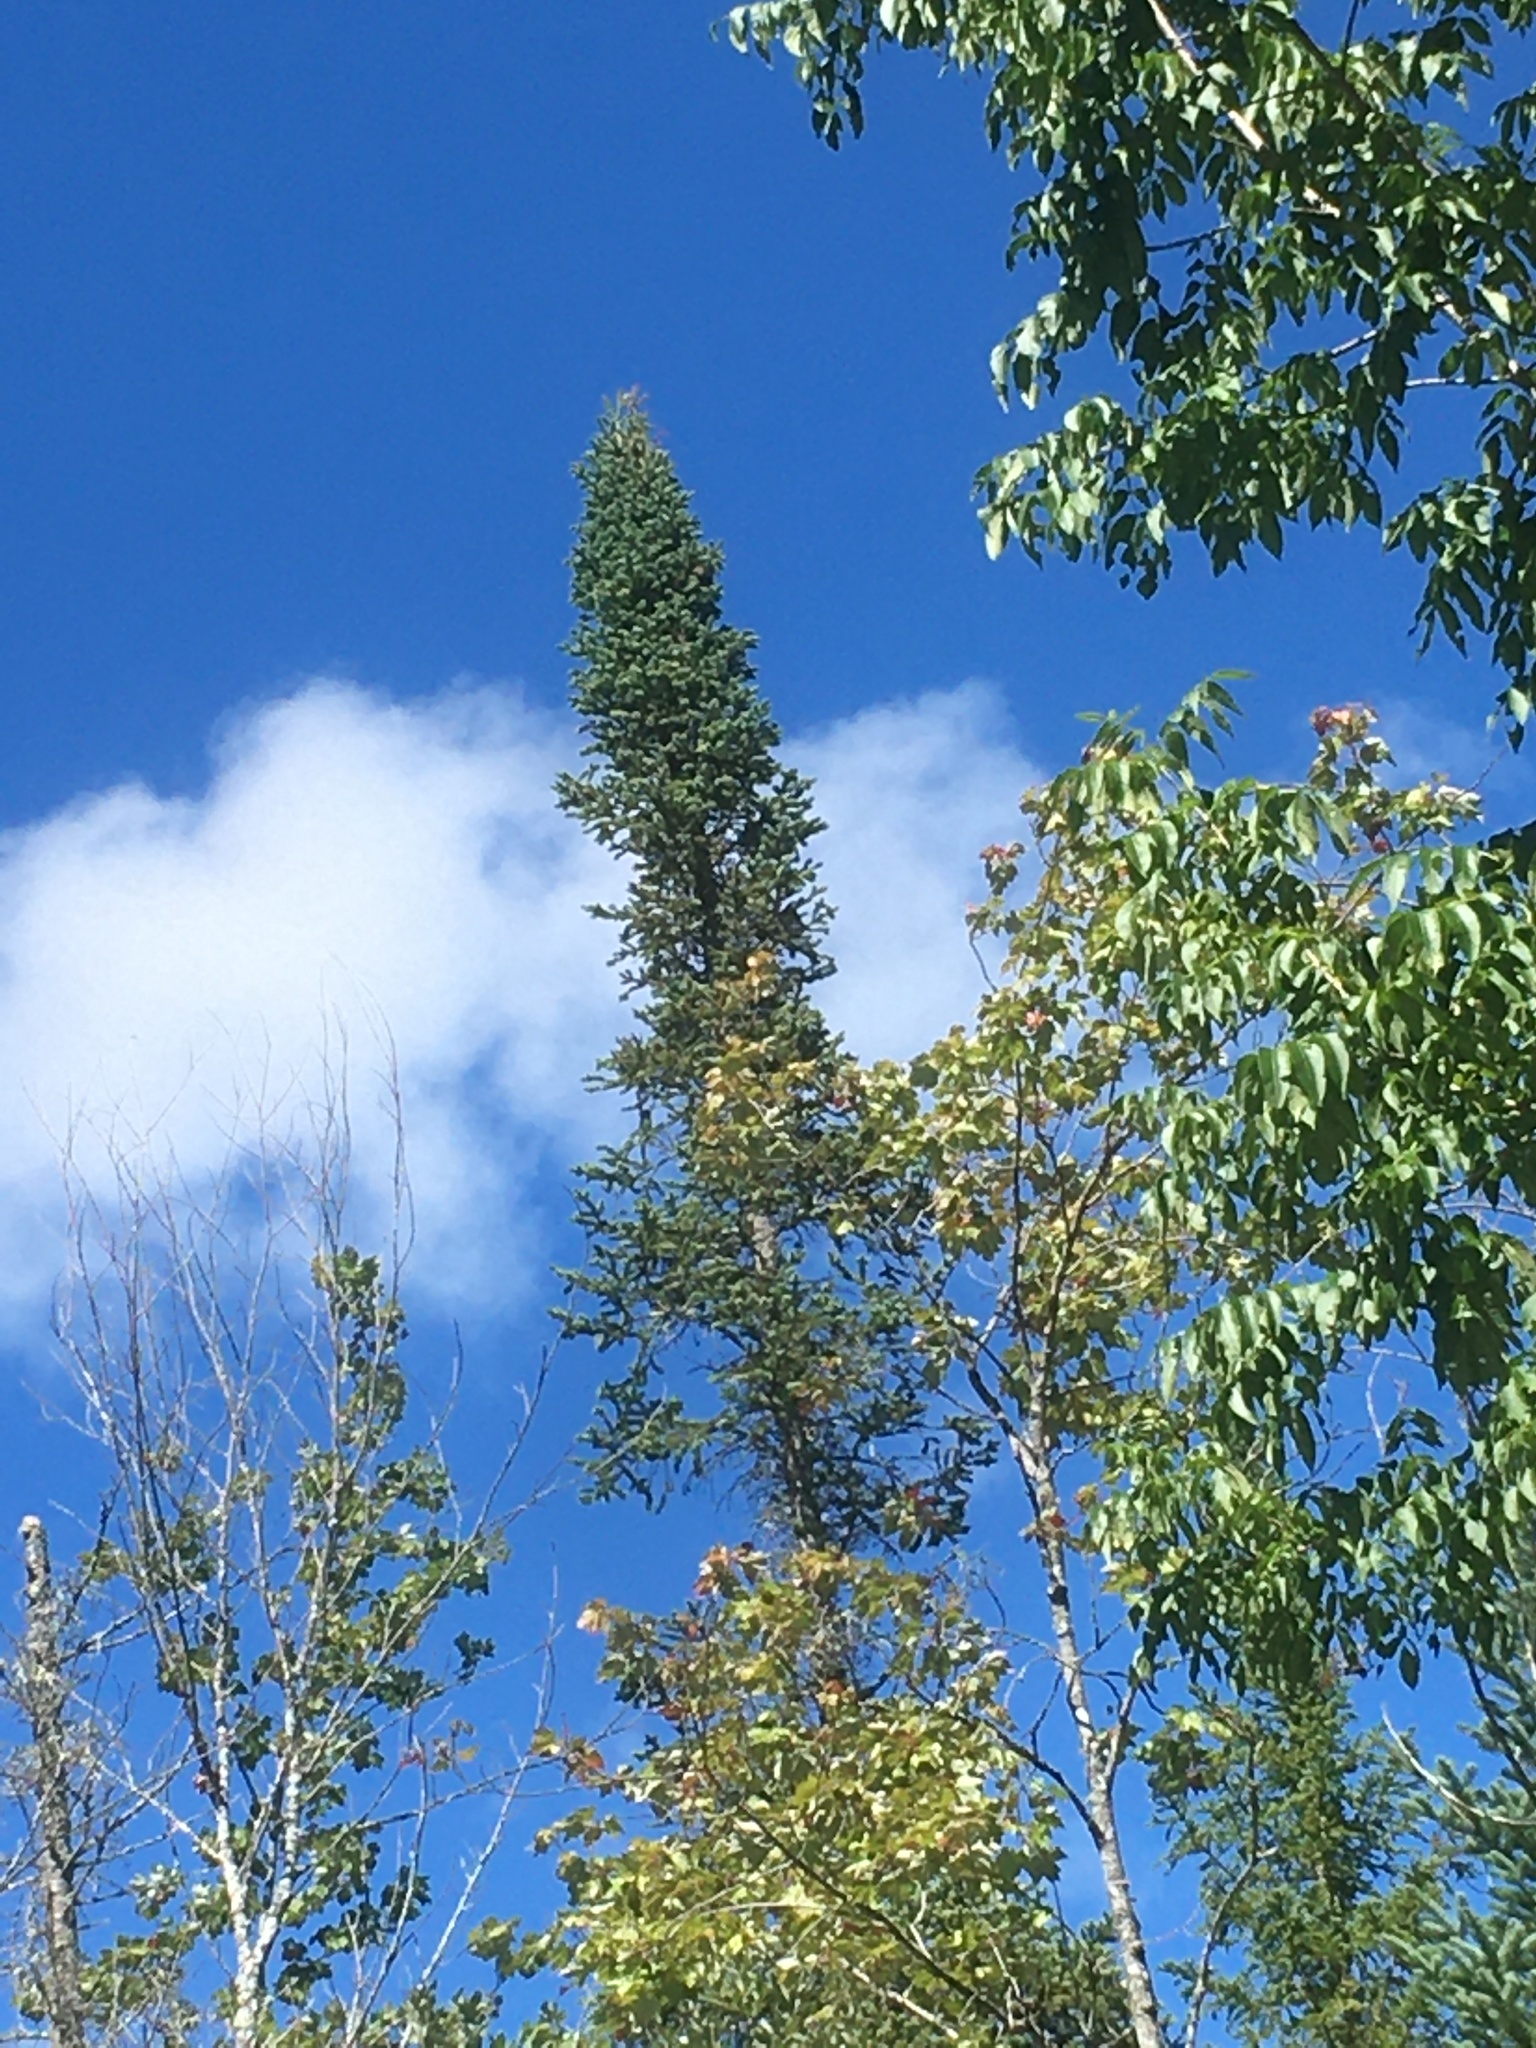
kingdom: Plantae
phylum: Tracheophyta
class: Pinopsida
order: Pinales
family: Pinaceae
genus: Abies
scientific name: Abies balsamea
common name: Balsam fir
